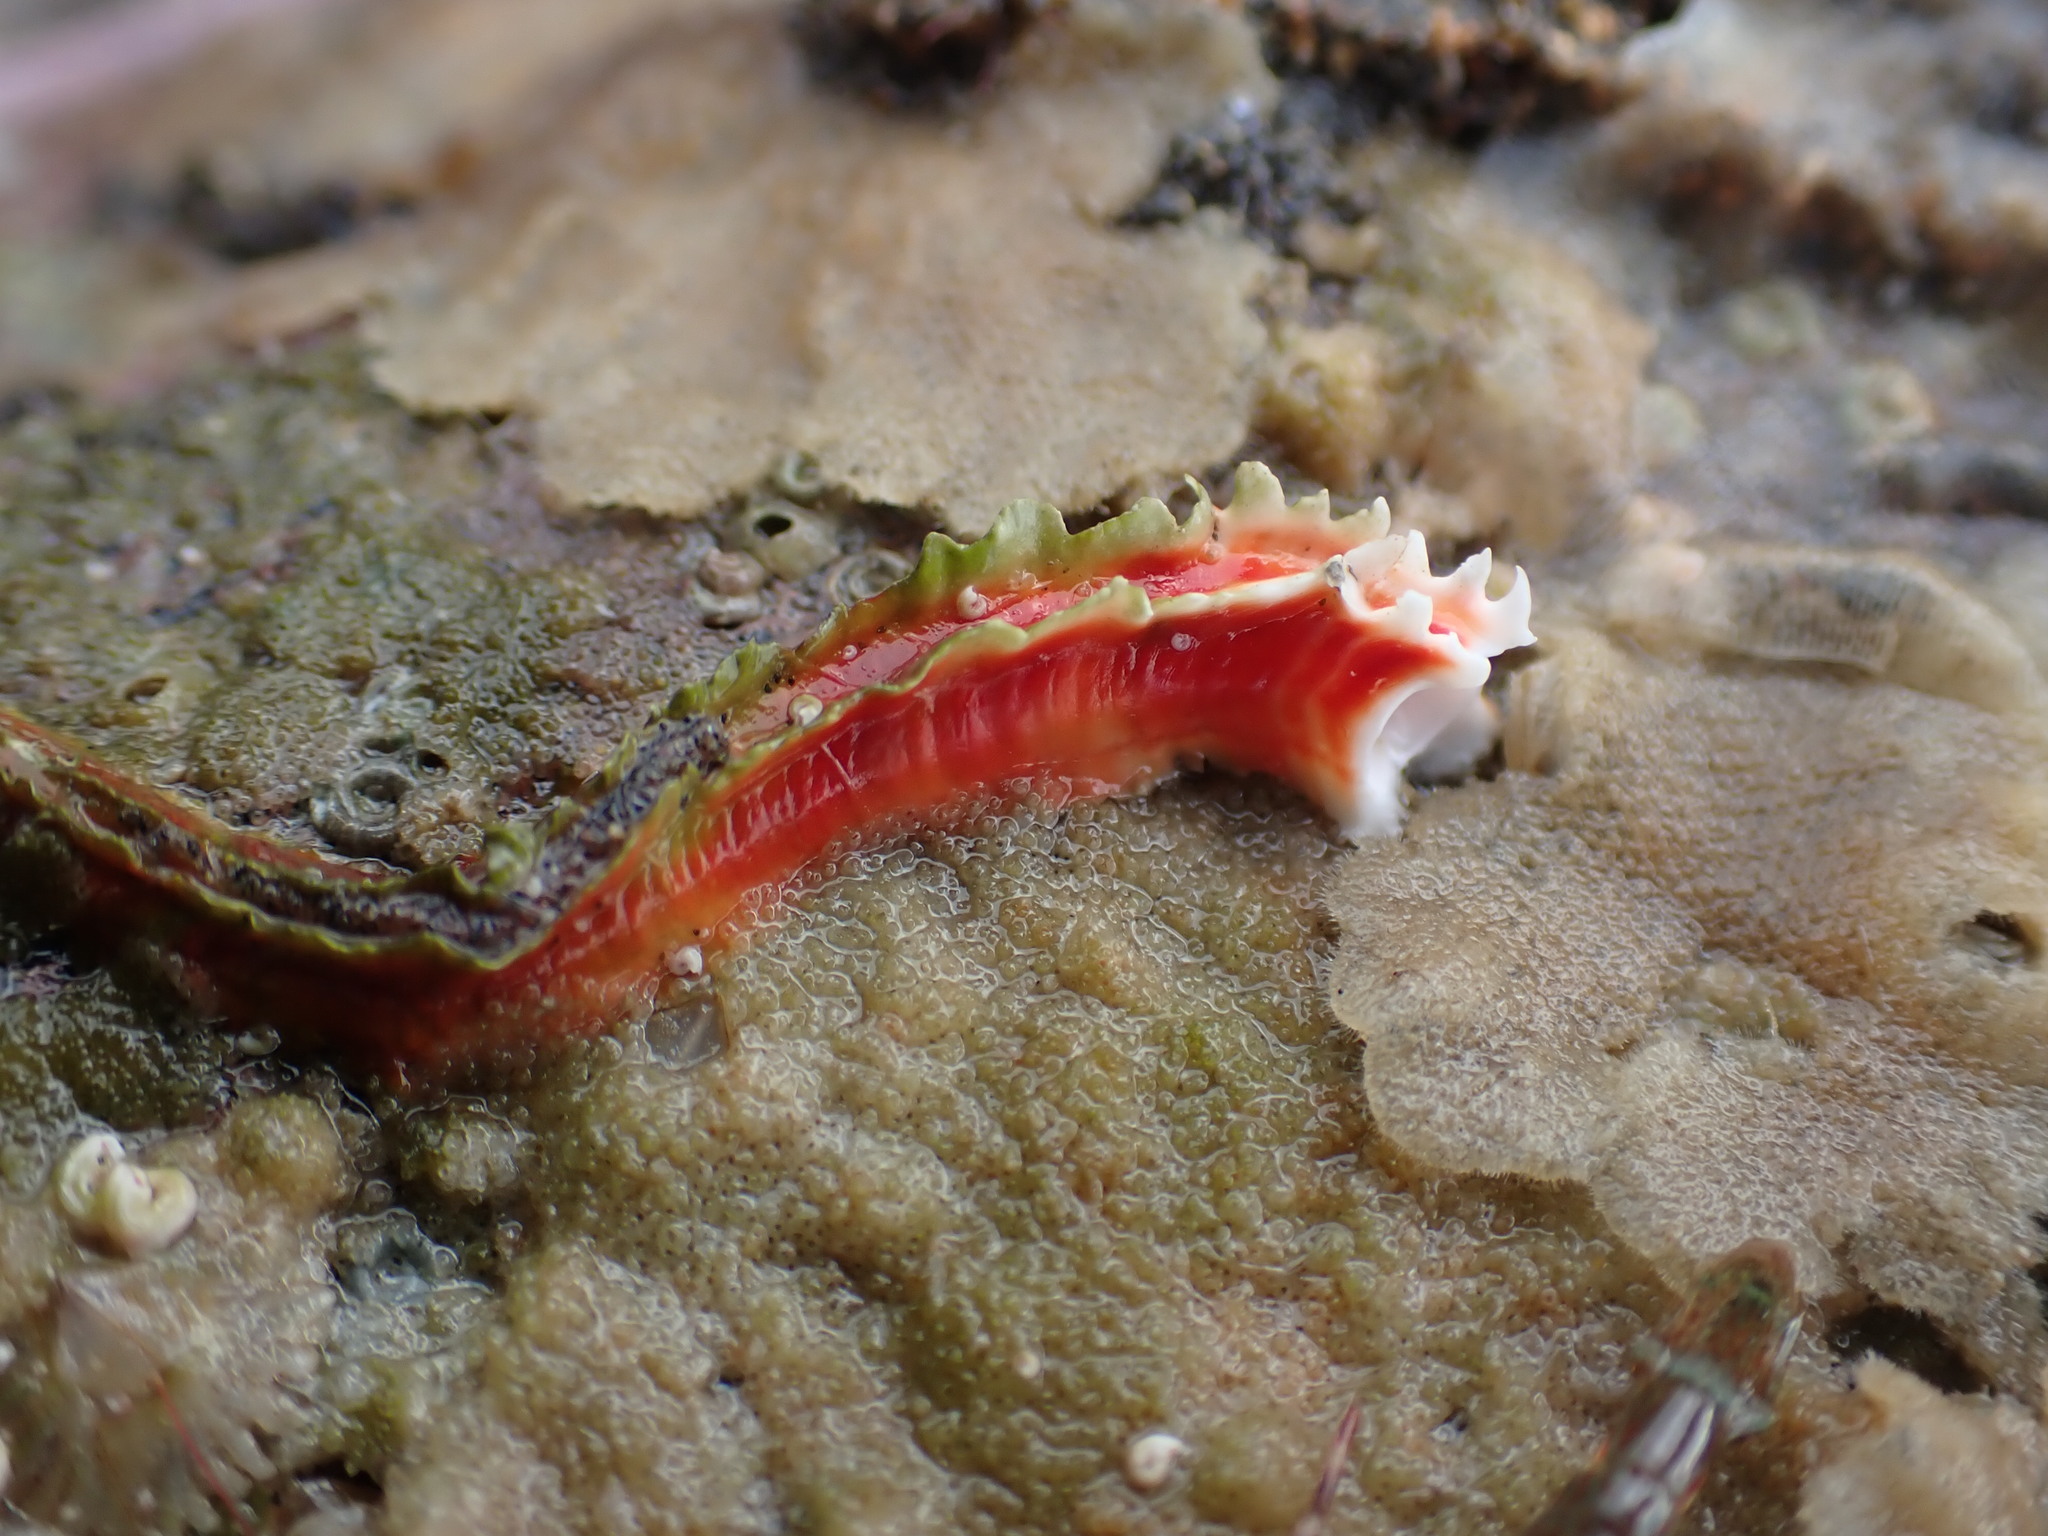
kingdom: Animalia
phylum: Annelida
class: Polychaeta
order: Sabellida
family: Serpulidae
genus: Galeolaria
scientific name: Galeolaria hystrix
